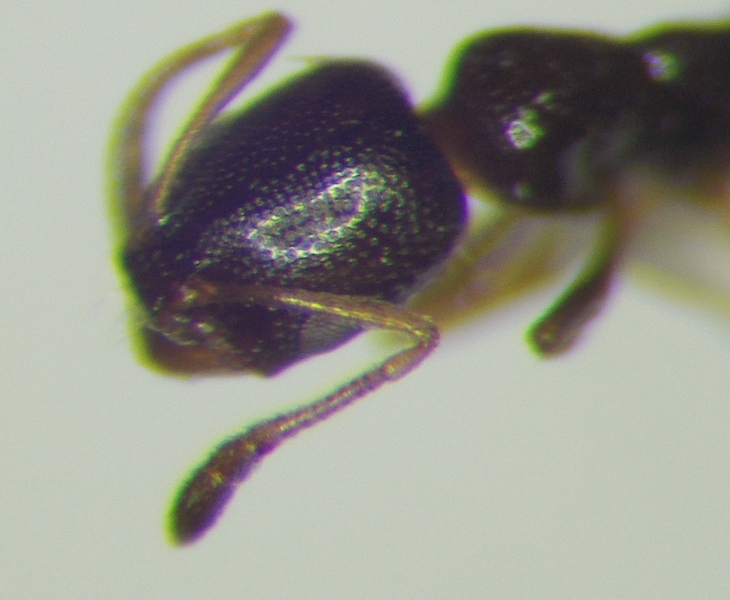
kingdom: Animalia
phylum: Arthropoda
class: Insecta
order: Hymenoptera
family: Formicidae
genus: Cardiocondyla
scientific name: Cardiocondyla sahlbergi
